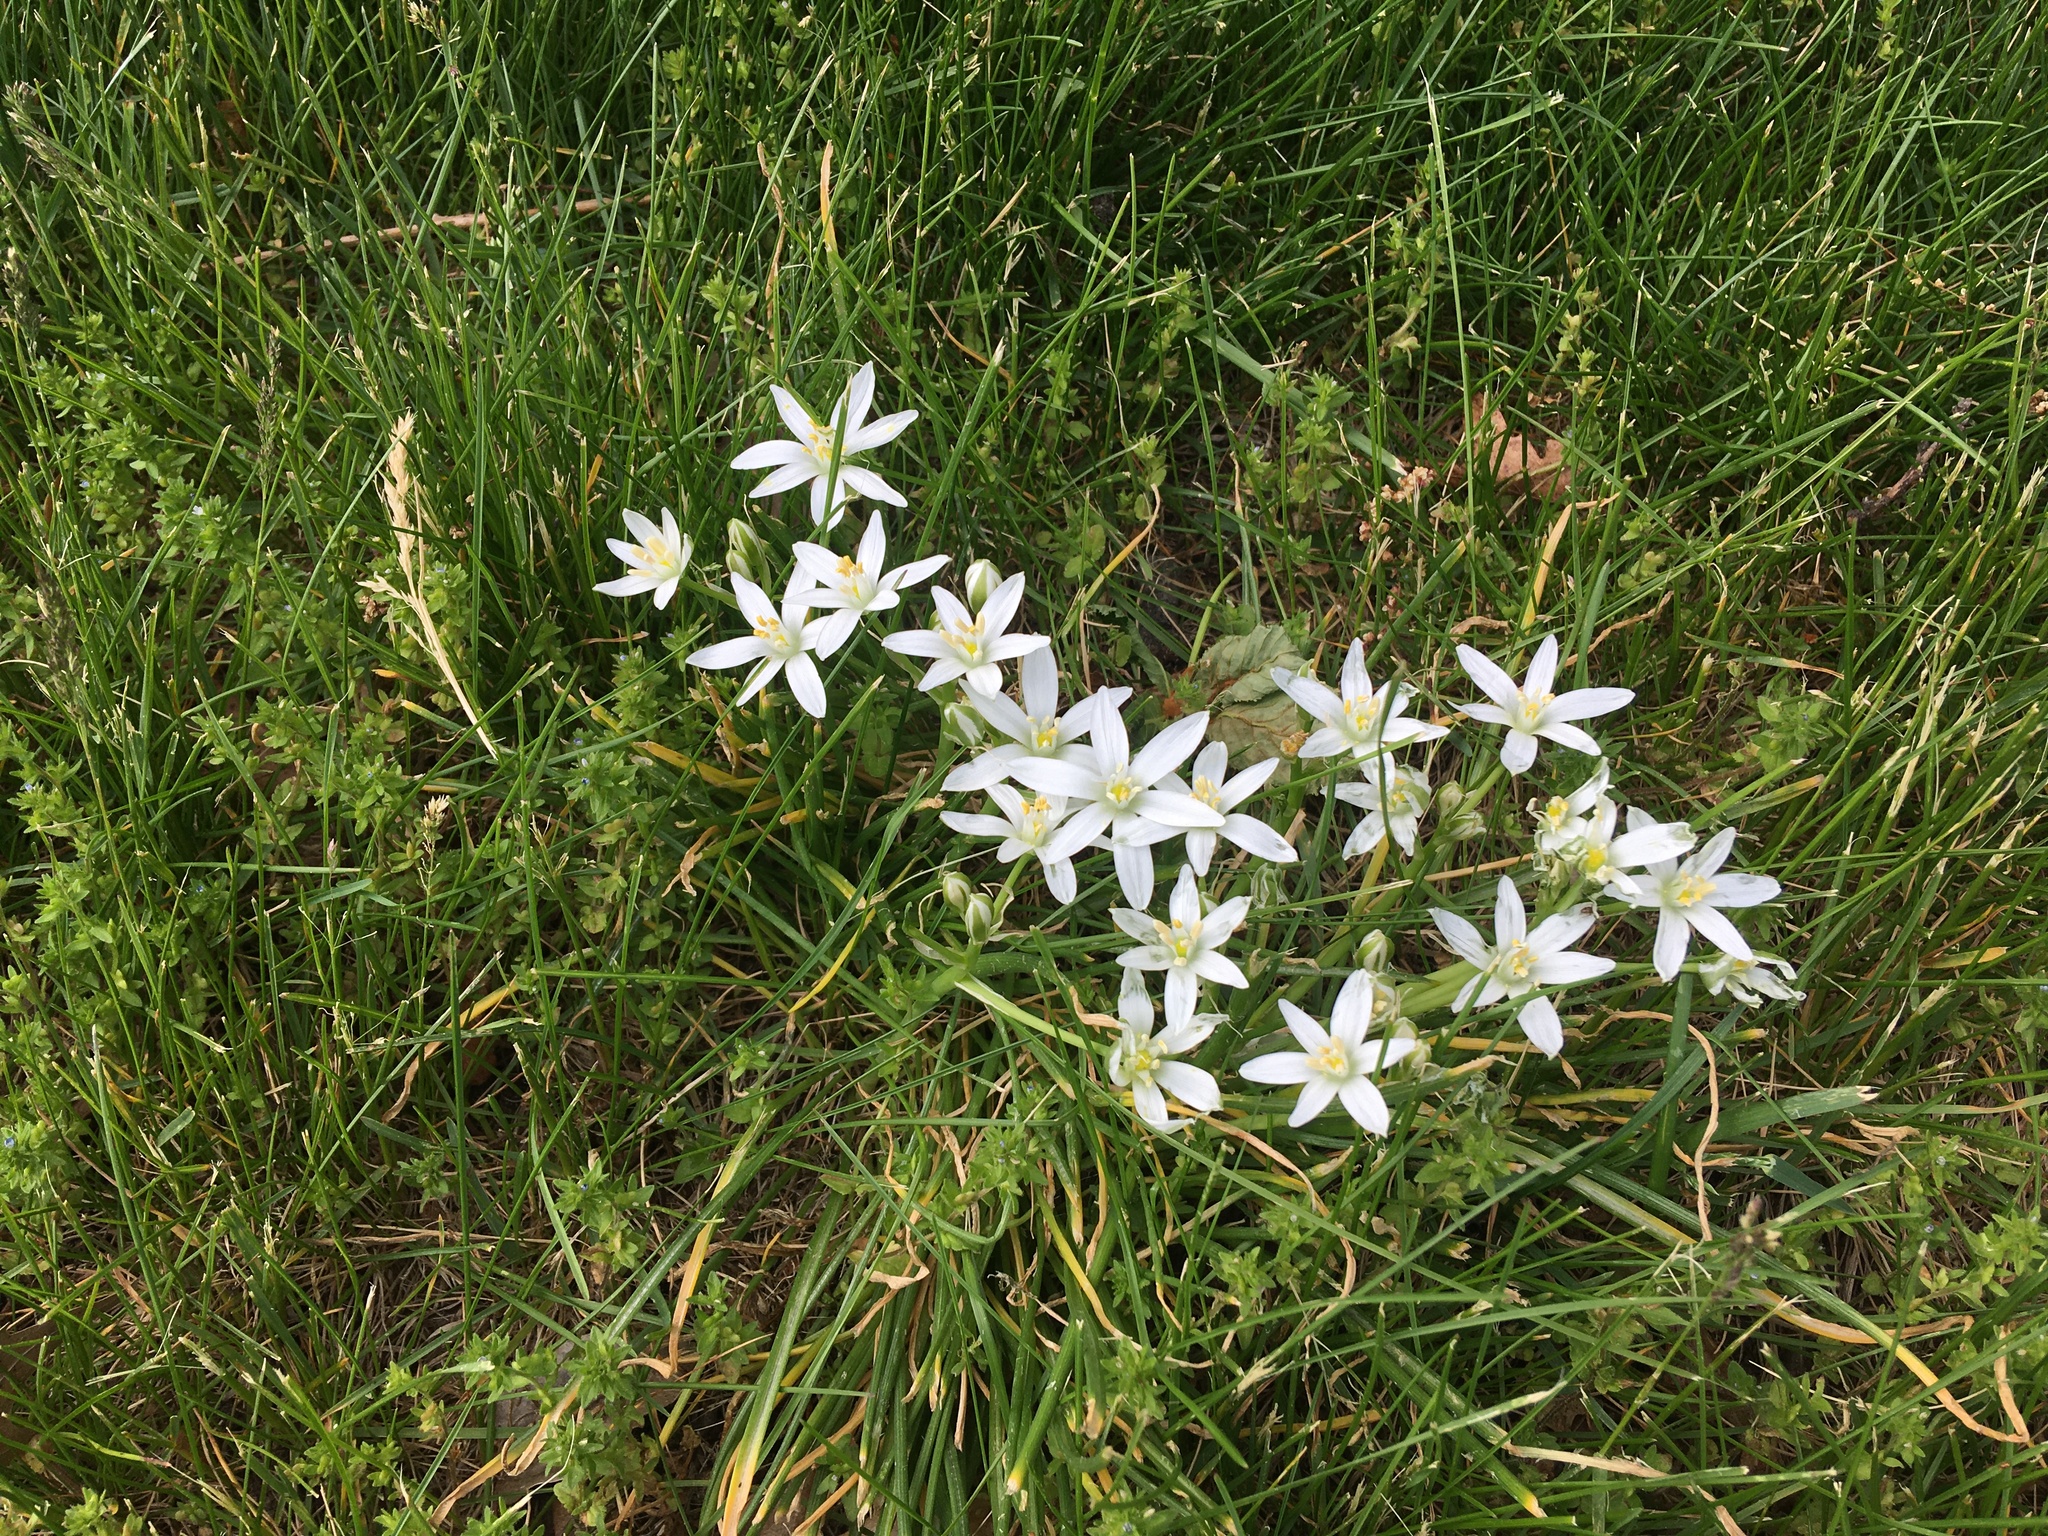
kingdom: Plantae
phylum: Tracheophyta
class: Liliopsida
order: Asparagales
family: Asparagaceae
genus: Ornithogalum
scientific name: Ornithogalum umbellatum
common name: Garden star-of-bethlehem
